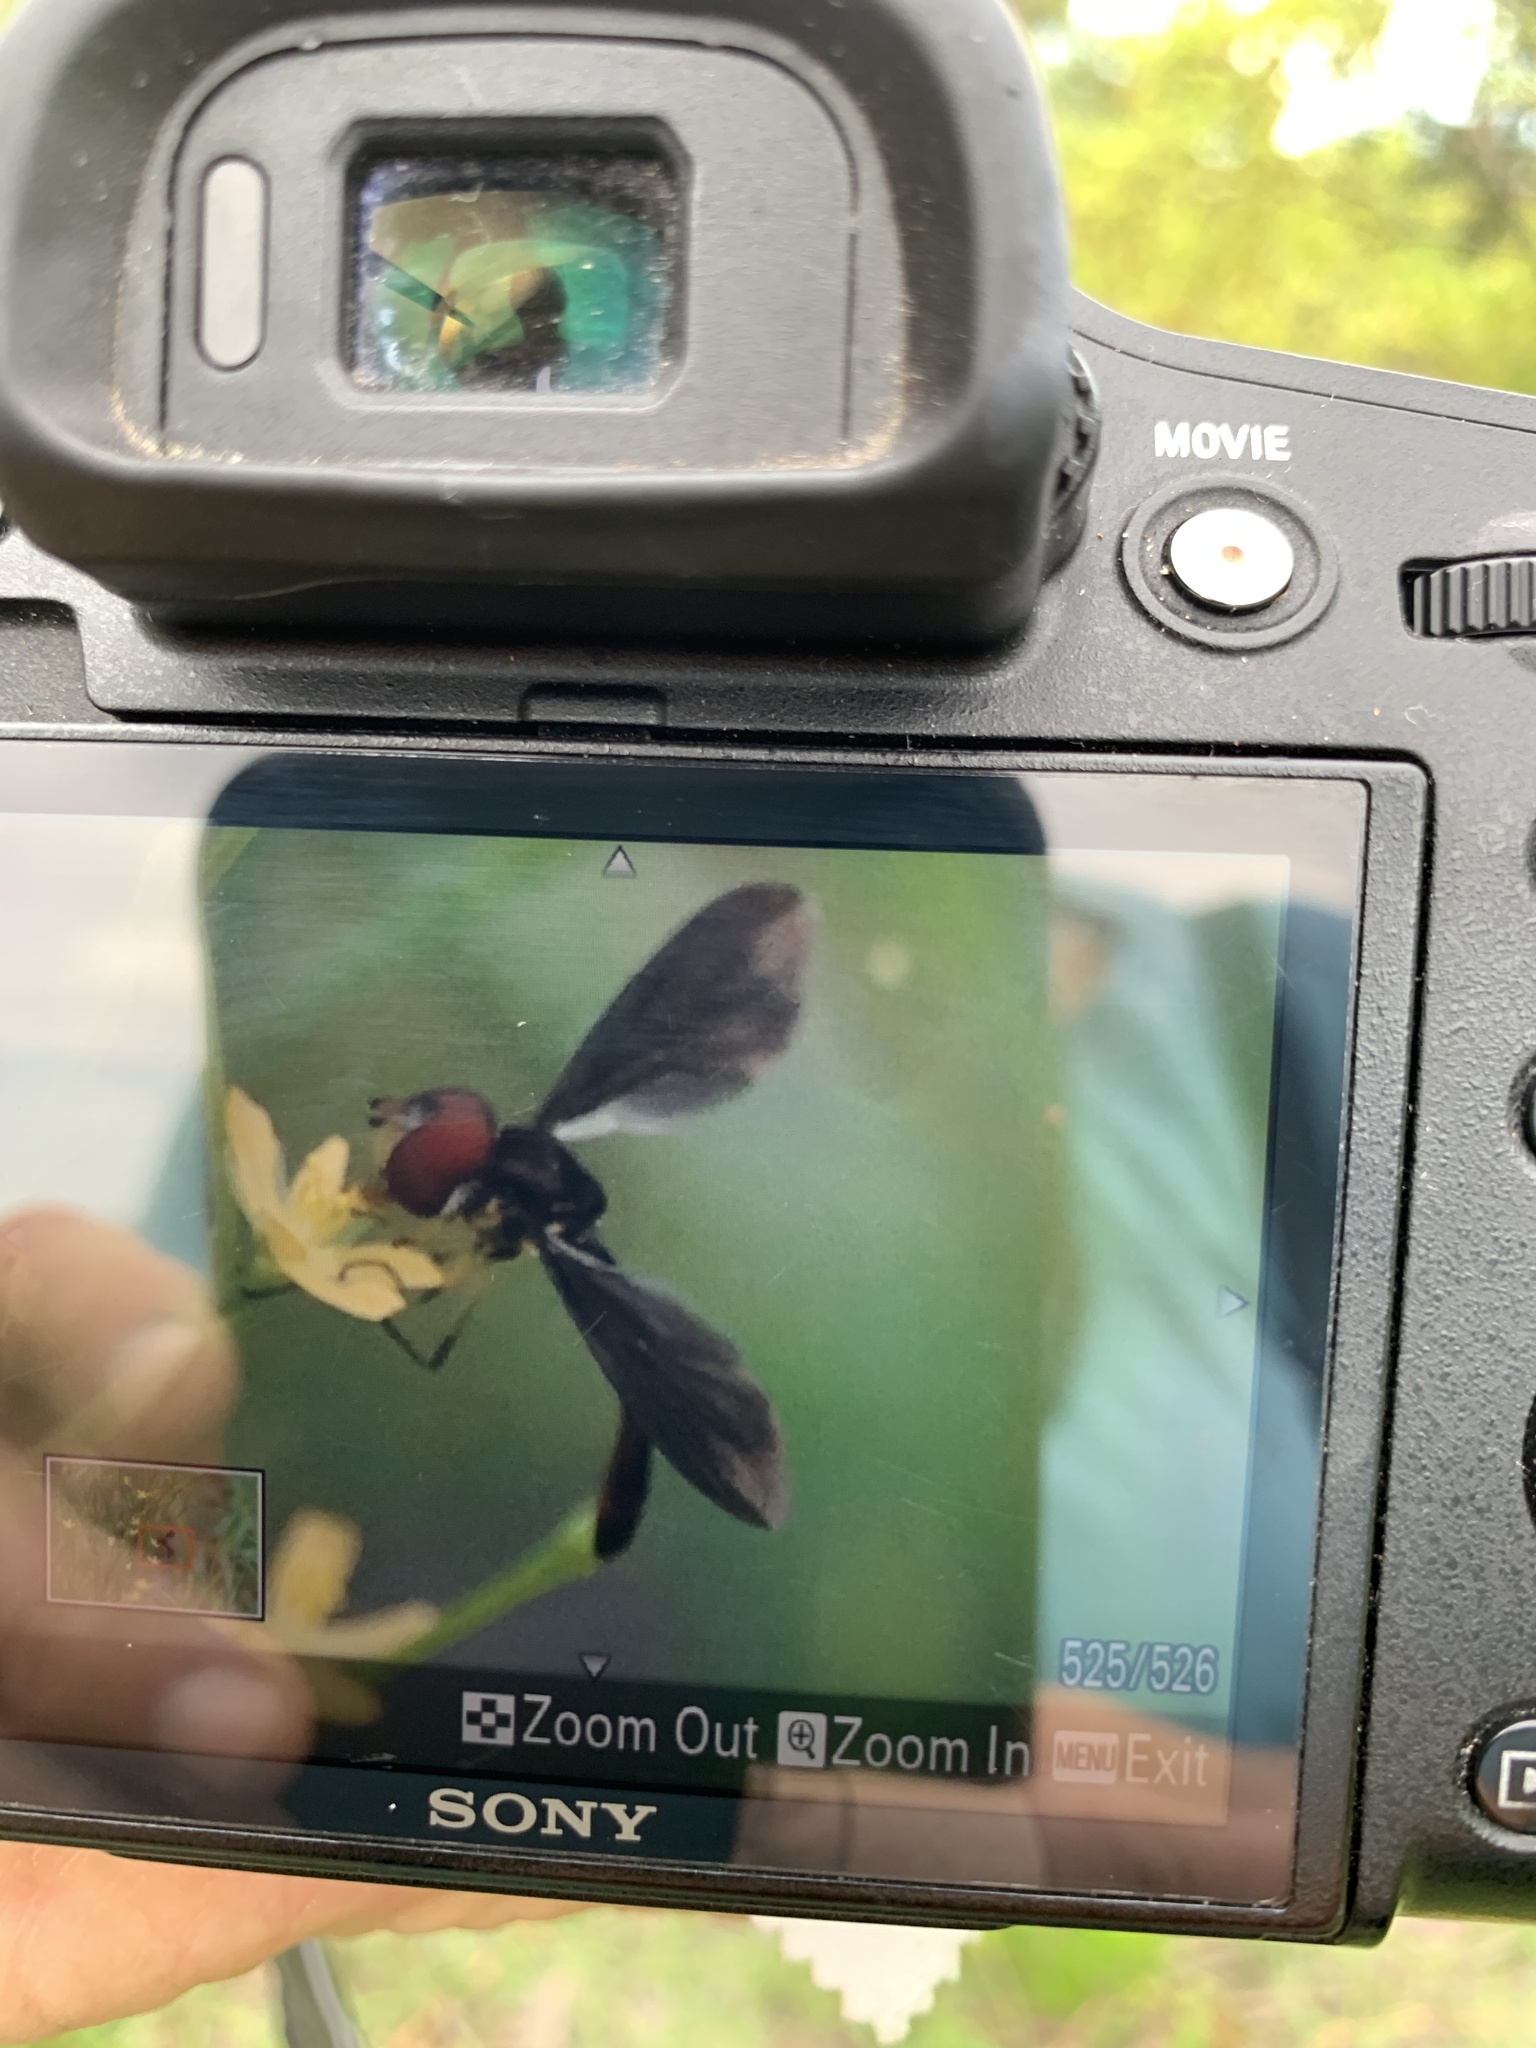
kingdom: Animalia
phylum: Arthropoda
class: Insecta
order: Diptera
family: Syrphidae
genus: Ocyptamus
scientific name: Ocyptamus fuscipennis
